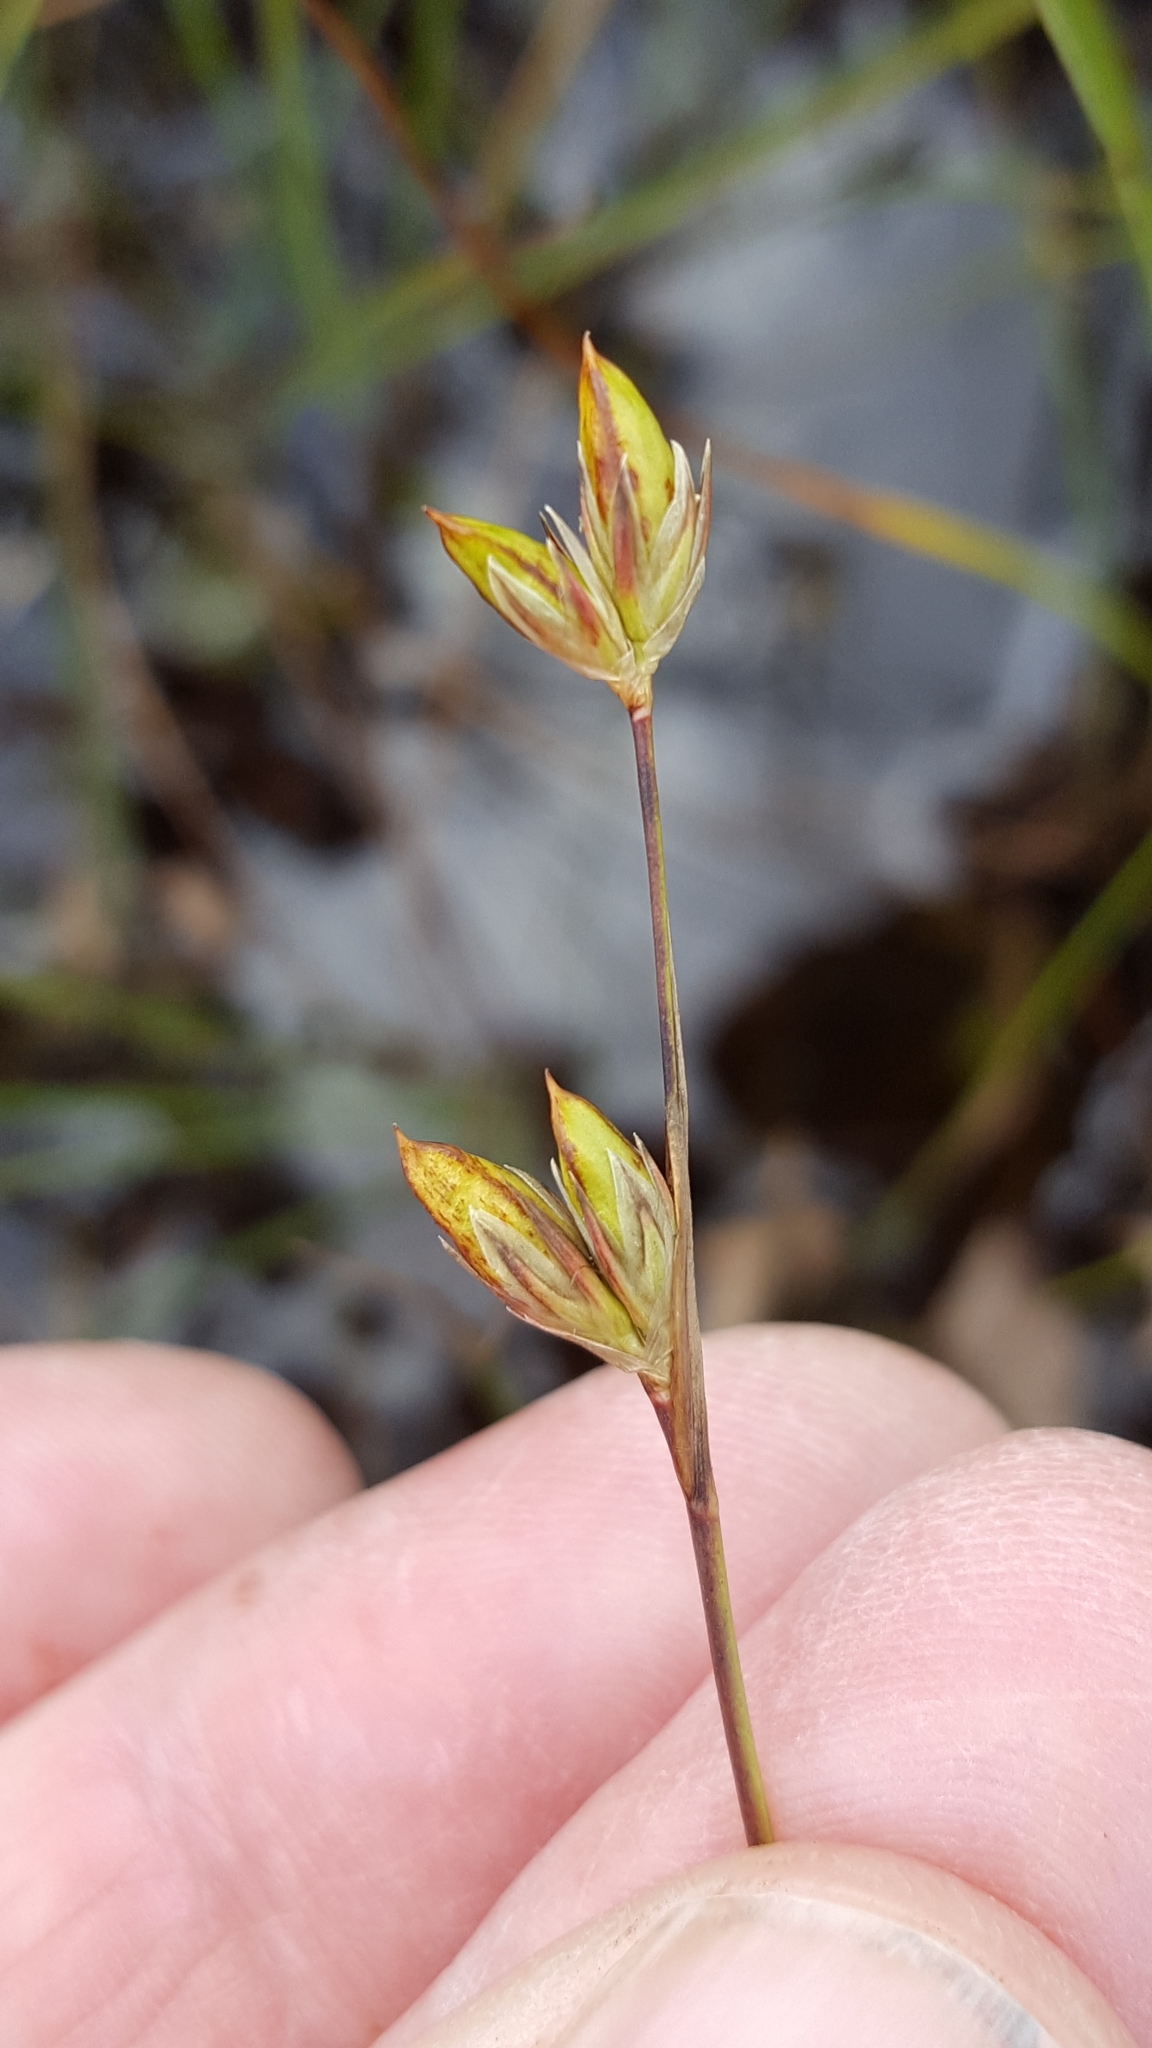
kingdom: Plantae
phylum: Tracheophyta
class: Liliopsida
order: Poales
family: Juncaceae
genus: Juncus
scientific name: Juncus stygius
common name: Bog rush
